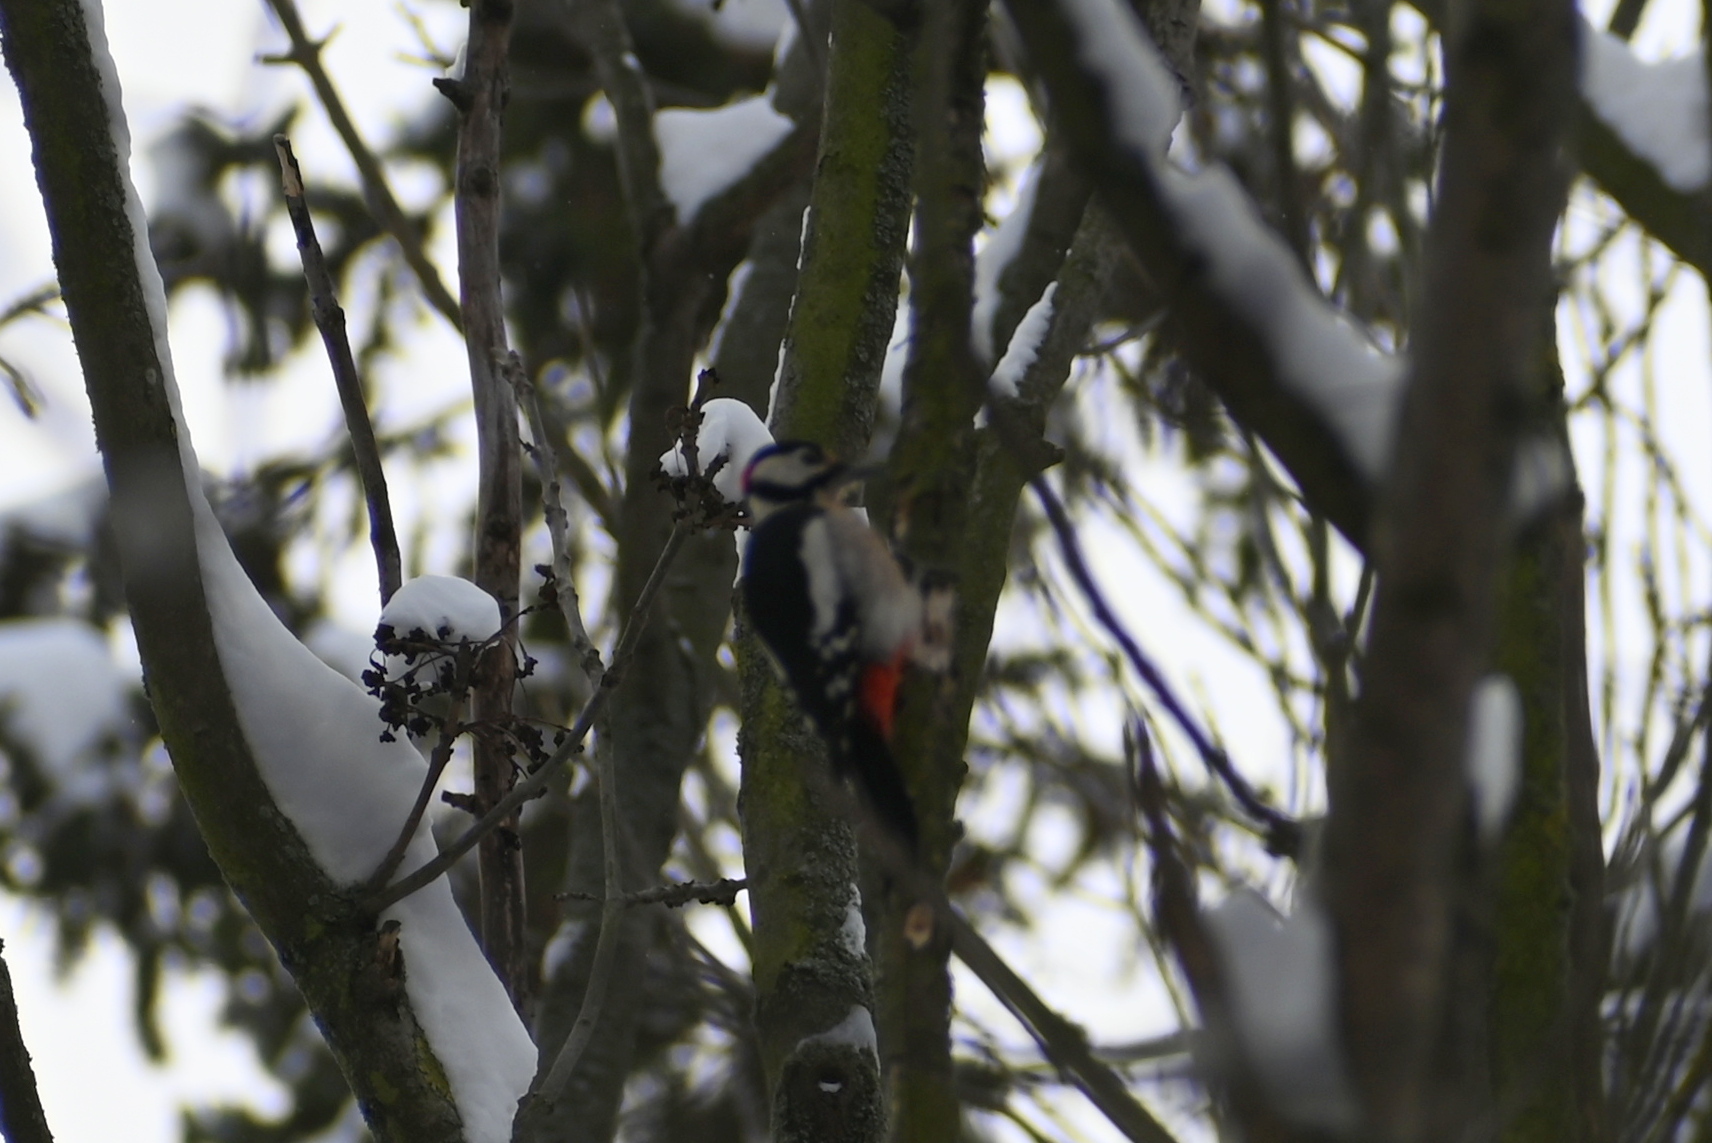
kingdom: Animalia
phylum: Chordata
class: Aves
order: Piciformes
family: Picidae
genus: Dendrocopos
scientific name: Dendrocopos major
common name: Great spotted woodpecker
